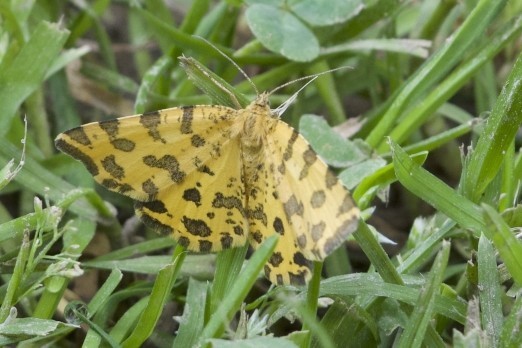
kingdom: Animalia
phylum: Arthropoda
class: Insecta
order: Lepidoptera
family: Geometridae
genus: Pseudopanthera
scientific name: Pseudopanthera macularia
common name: Speckled yellow
